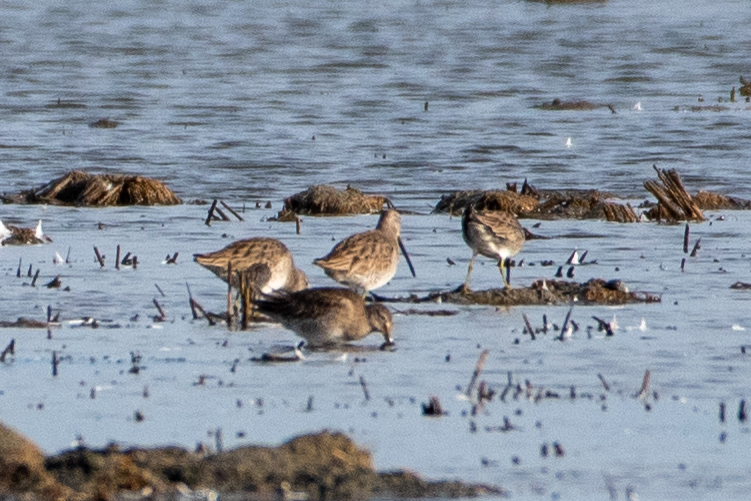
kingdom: Animalia
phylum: Chordata
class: Aves
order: Charadriiformes
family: Scolopacidae
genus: Limnodromus
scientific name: Limnodromus scolopaceus
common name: Long-billed dowitcher
